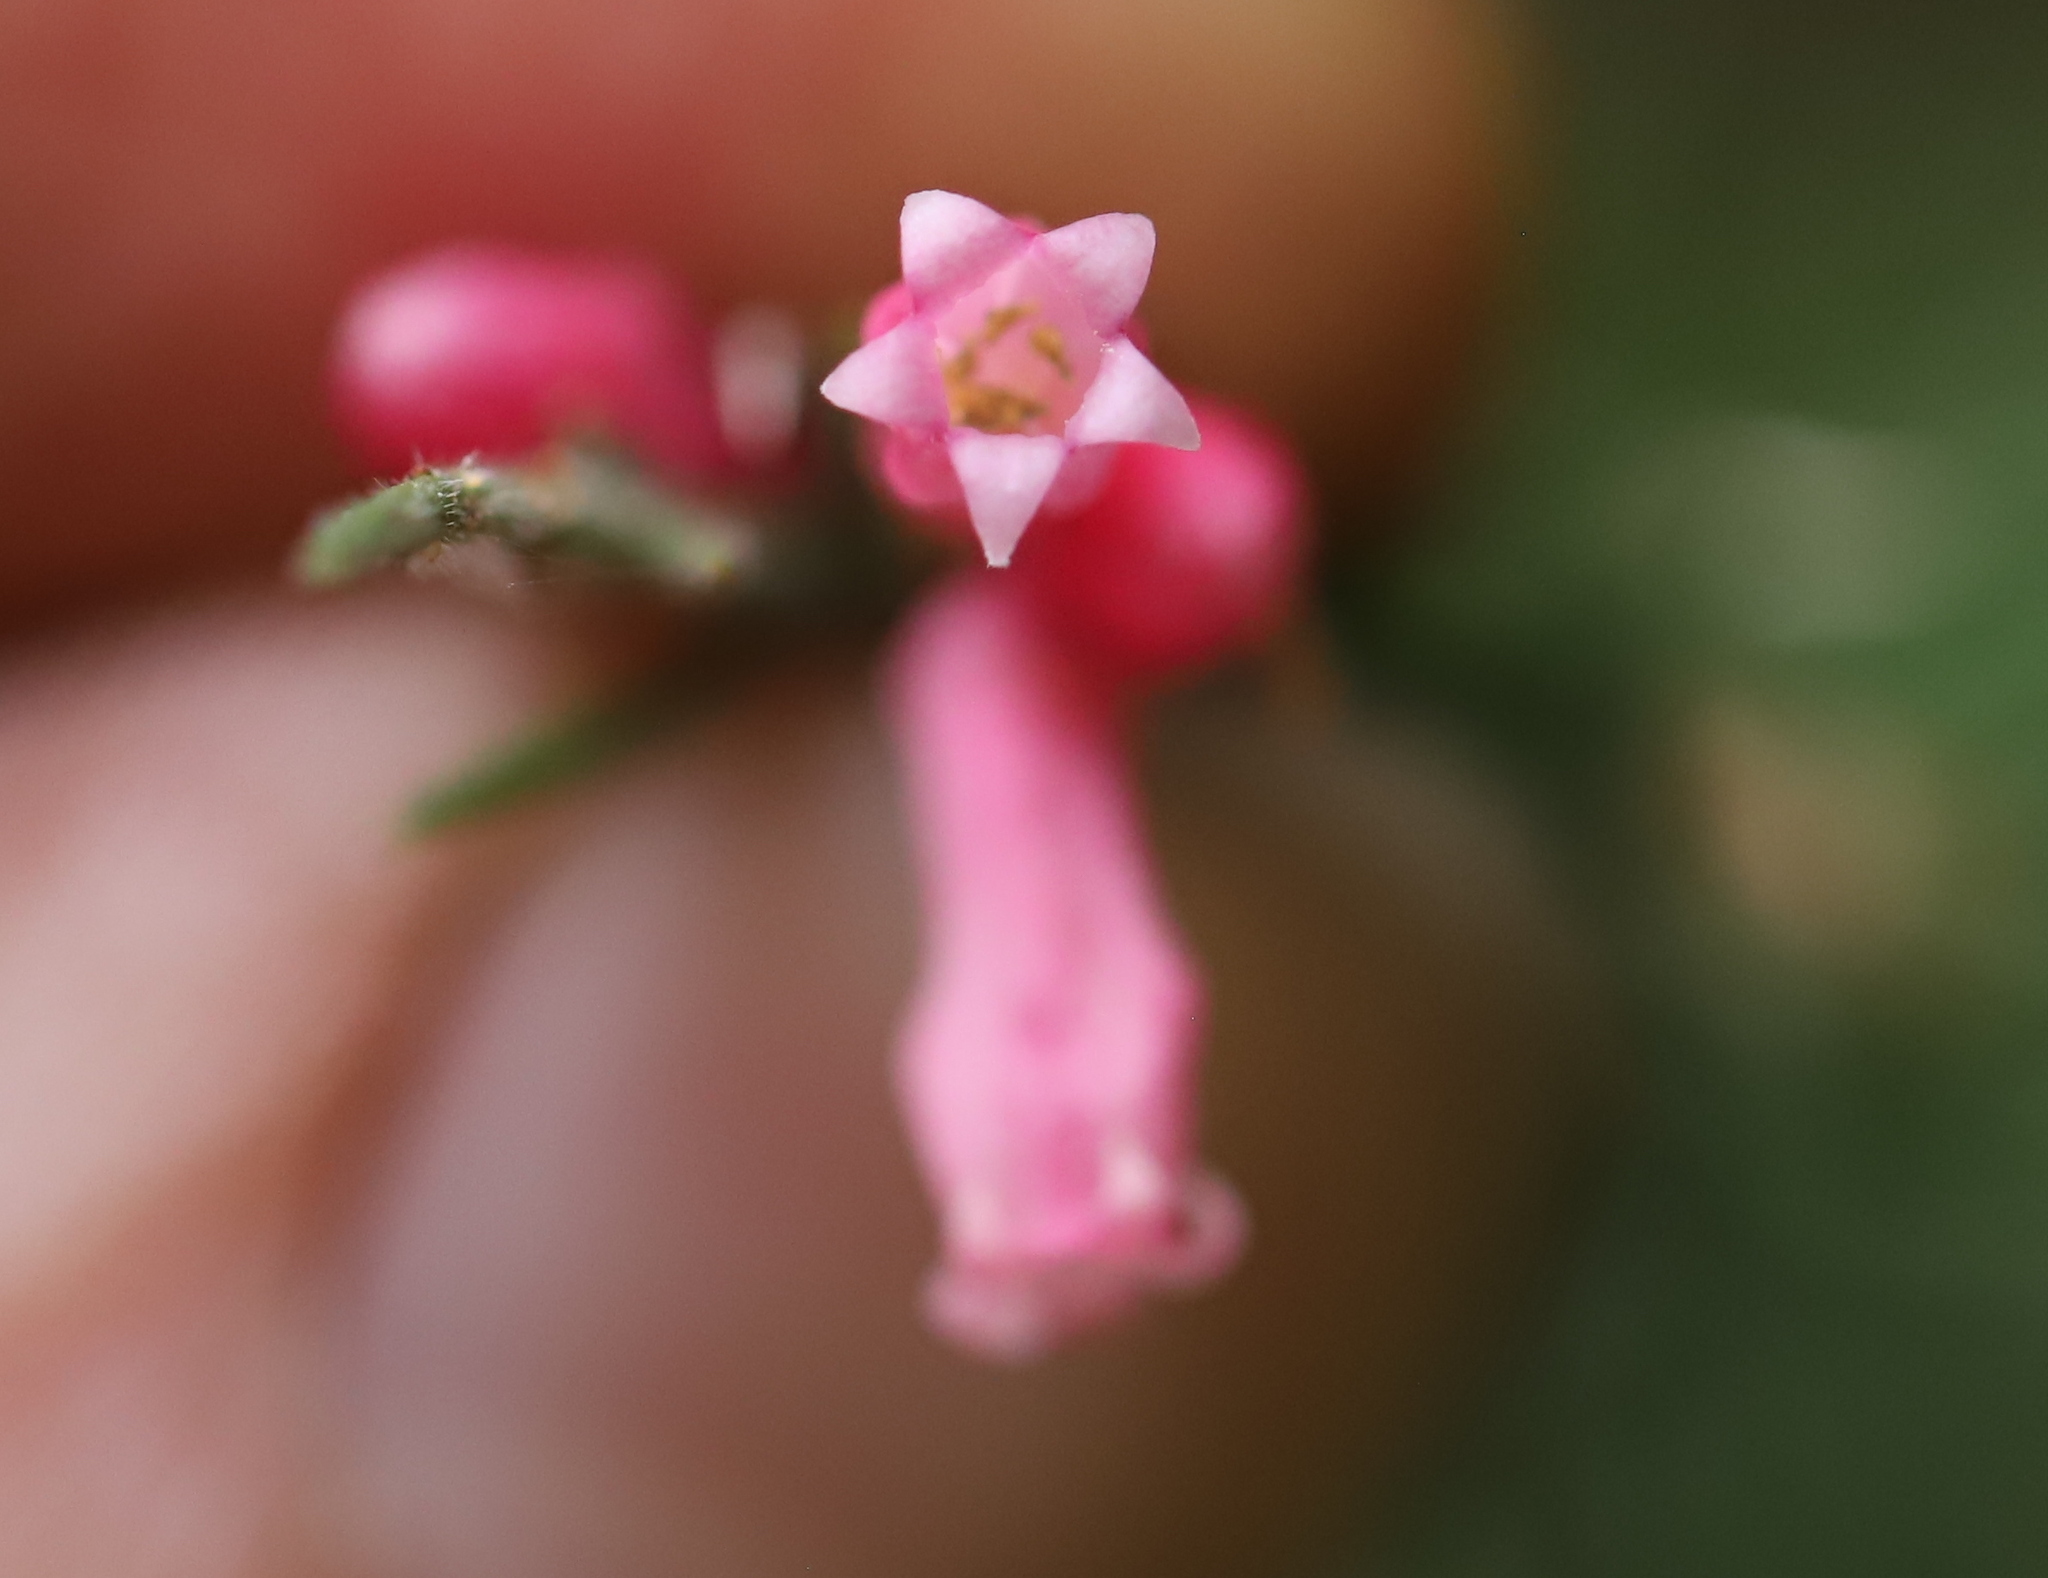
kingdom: Plantae
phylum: Tracheophyta
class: Magnoliopsida
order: Rosales
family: Rhamnaceae
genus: Colletia
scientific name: Colletia ulicina
